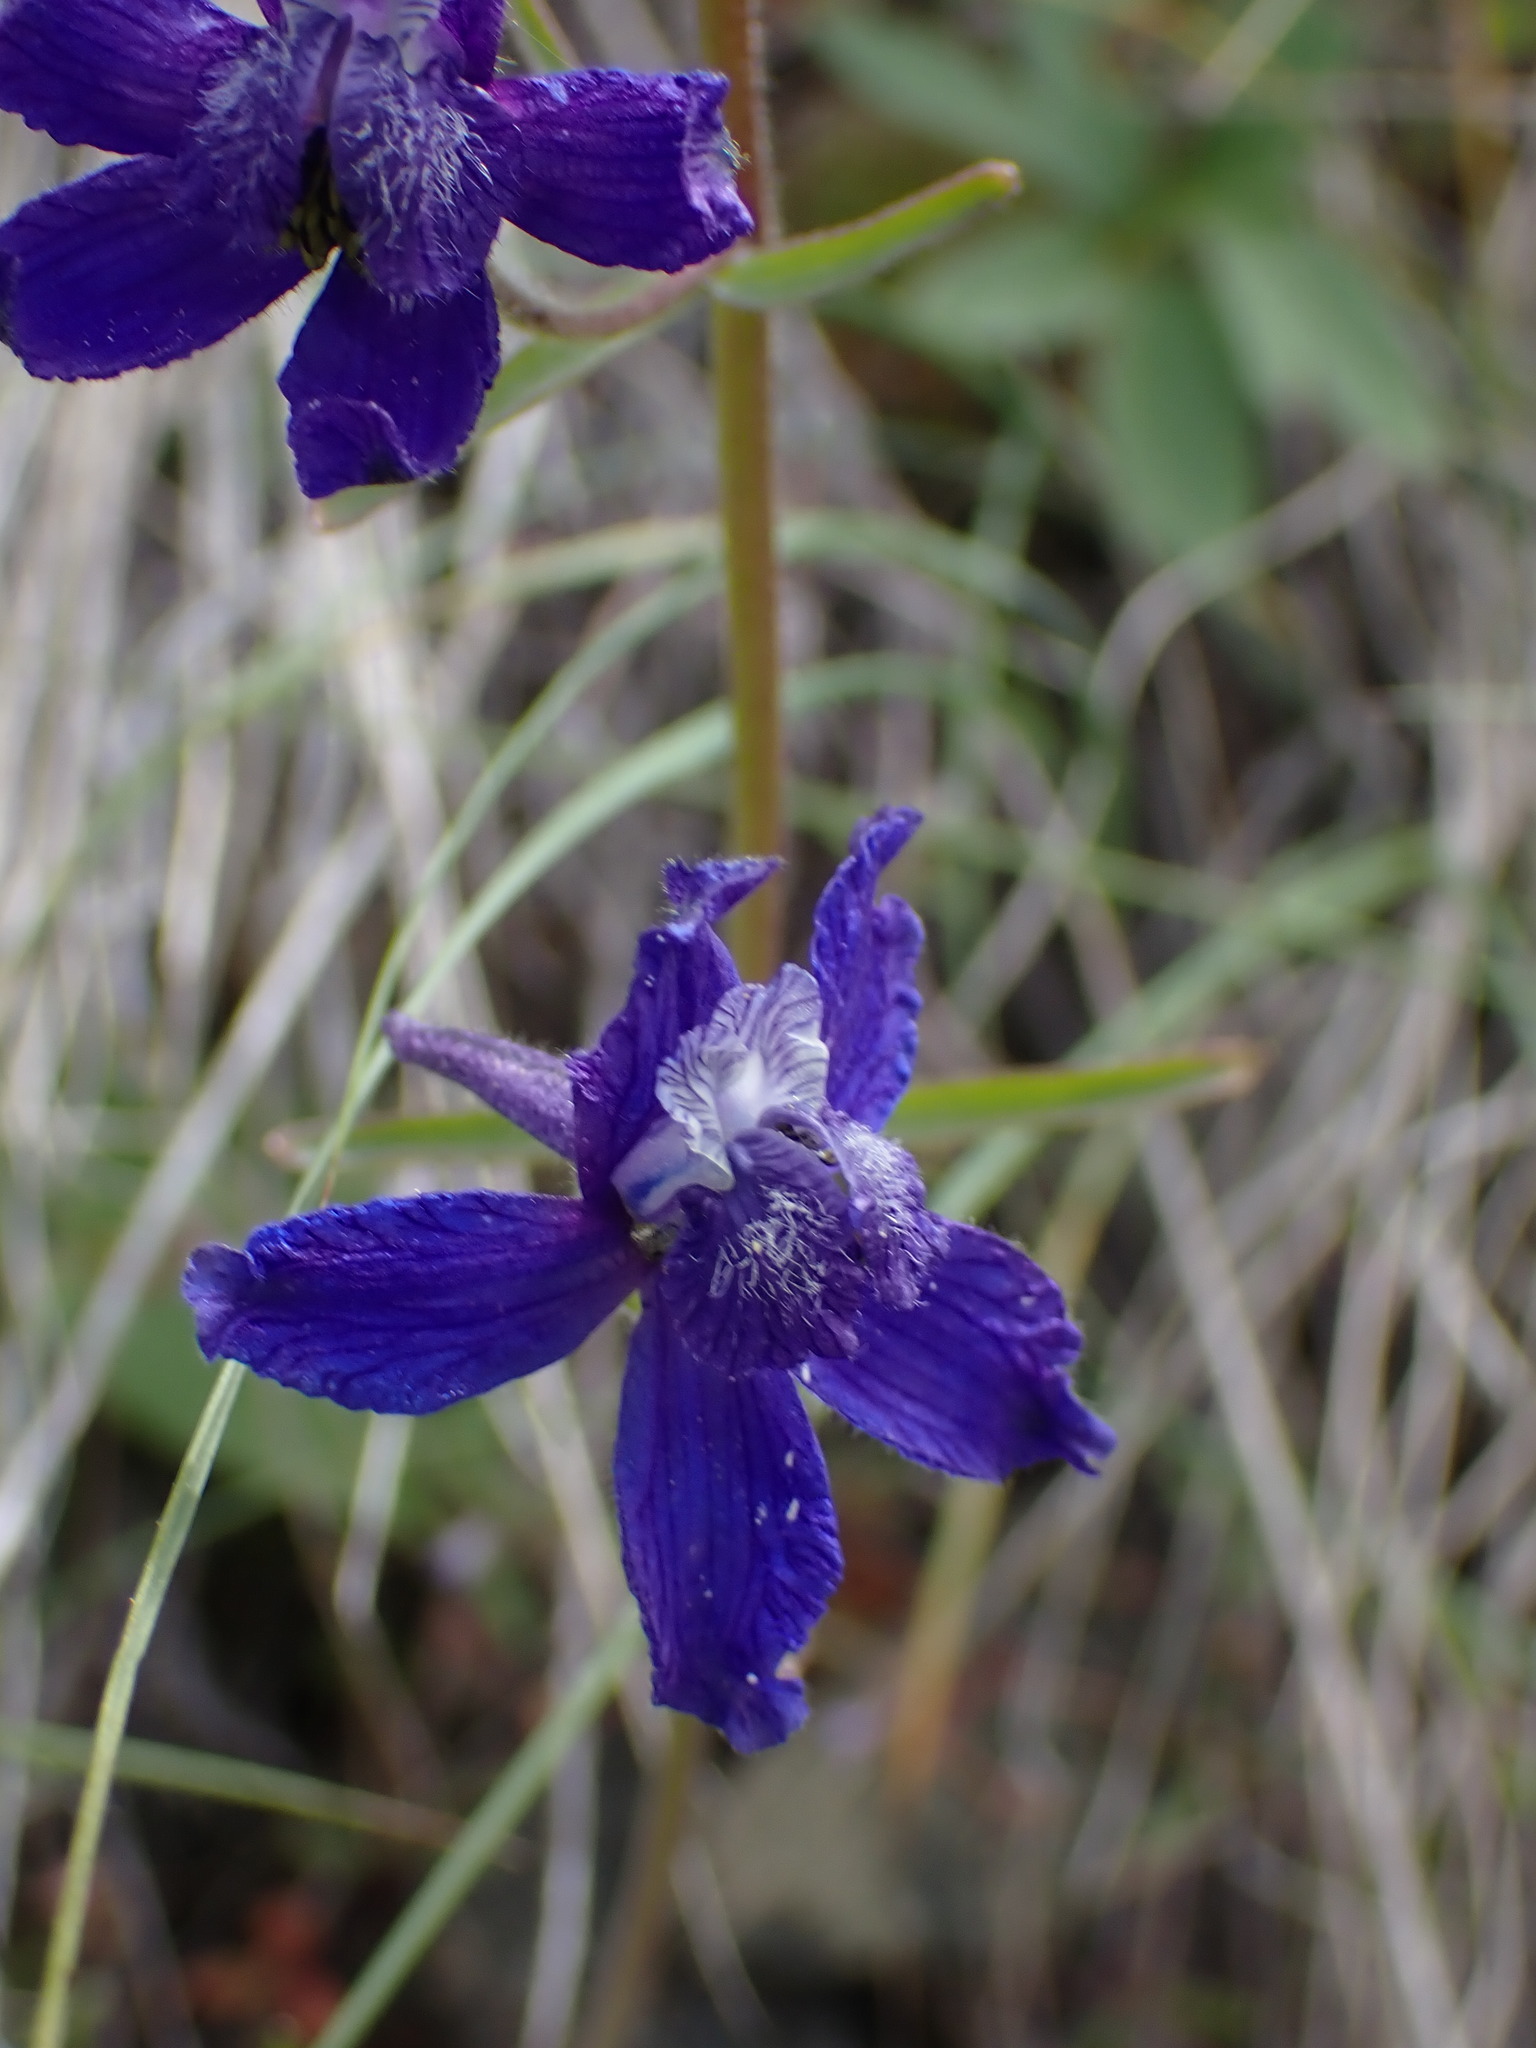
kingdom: Plantae
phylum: Tracheophyta
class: Magnoliopsida
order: Ranunculales
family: Ranunculaceae
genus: Delphinium
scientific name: Delphinium nuttallianum
